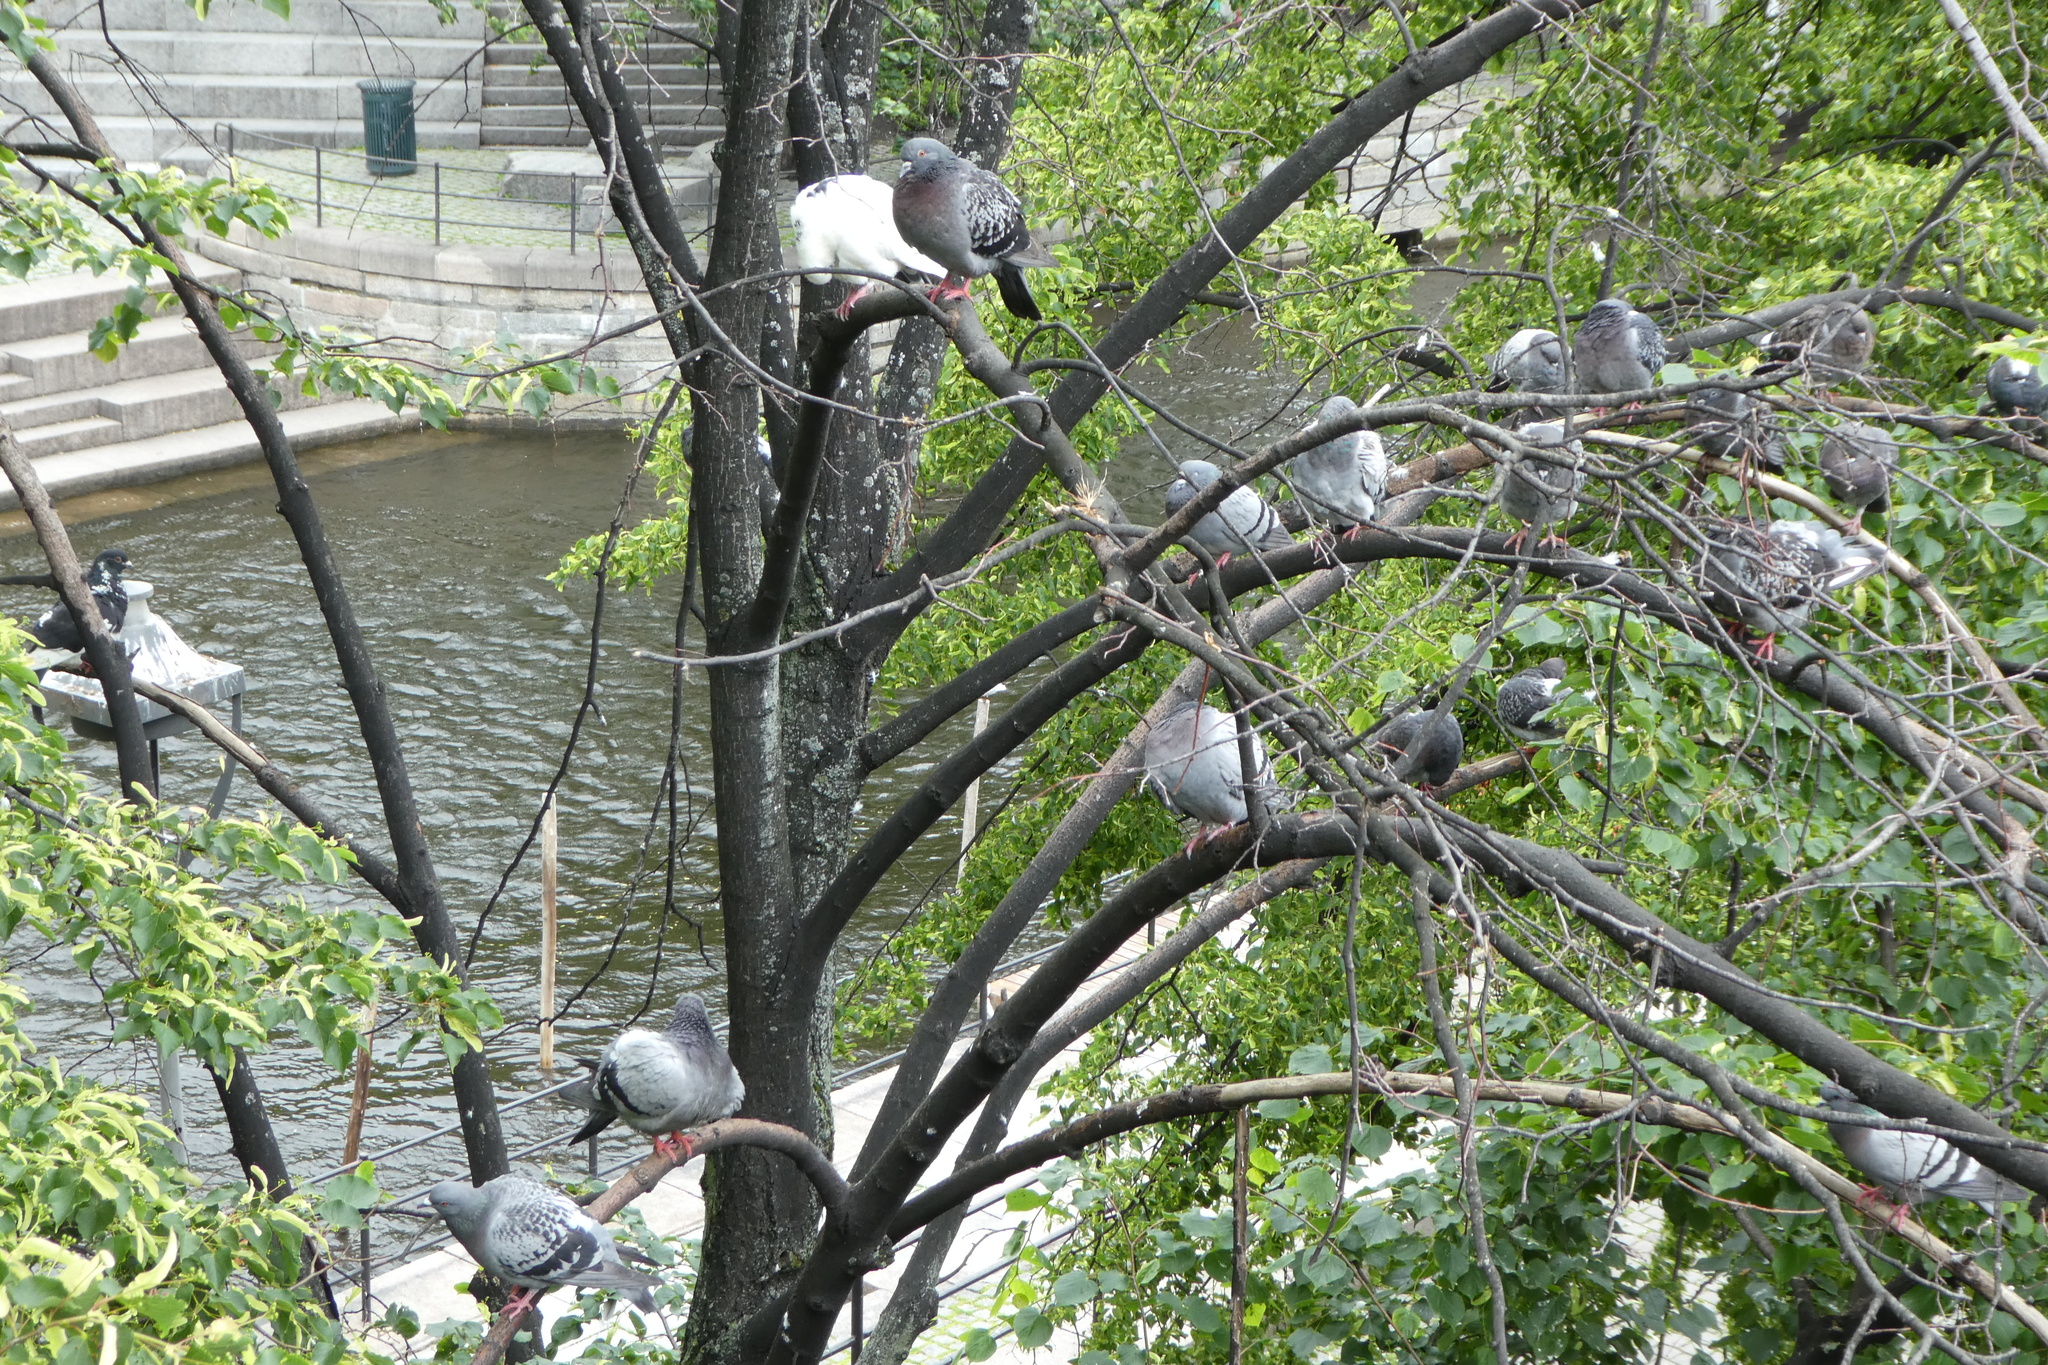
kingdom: Animalia
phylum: Chordata
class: Aves
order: Columbiformes
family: Columbidae
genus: Columba
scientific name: Columba livia
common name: Rock pigeon
